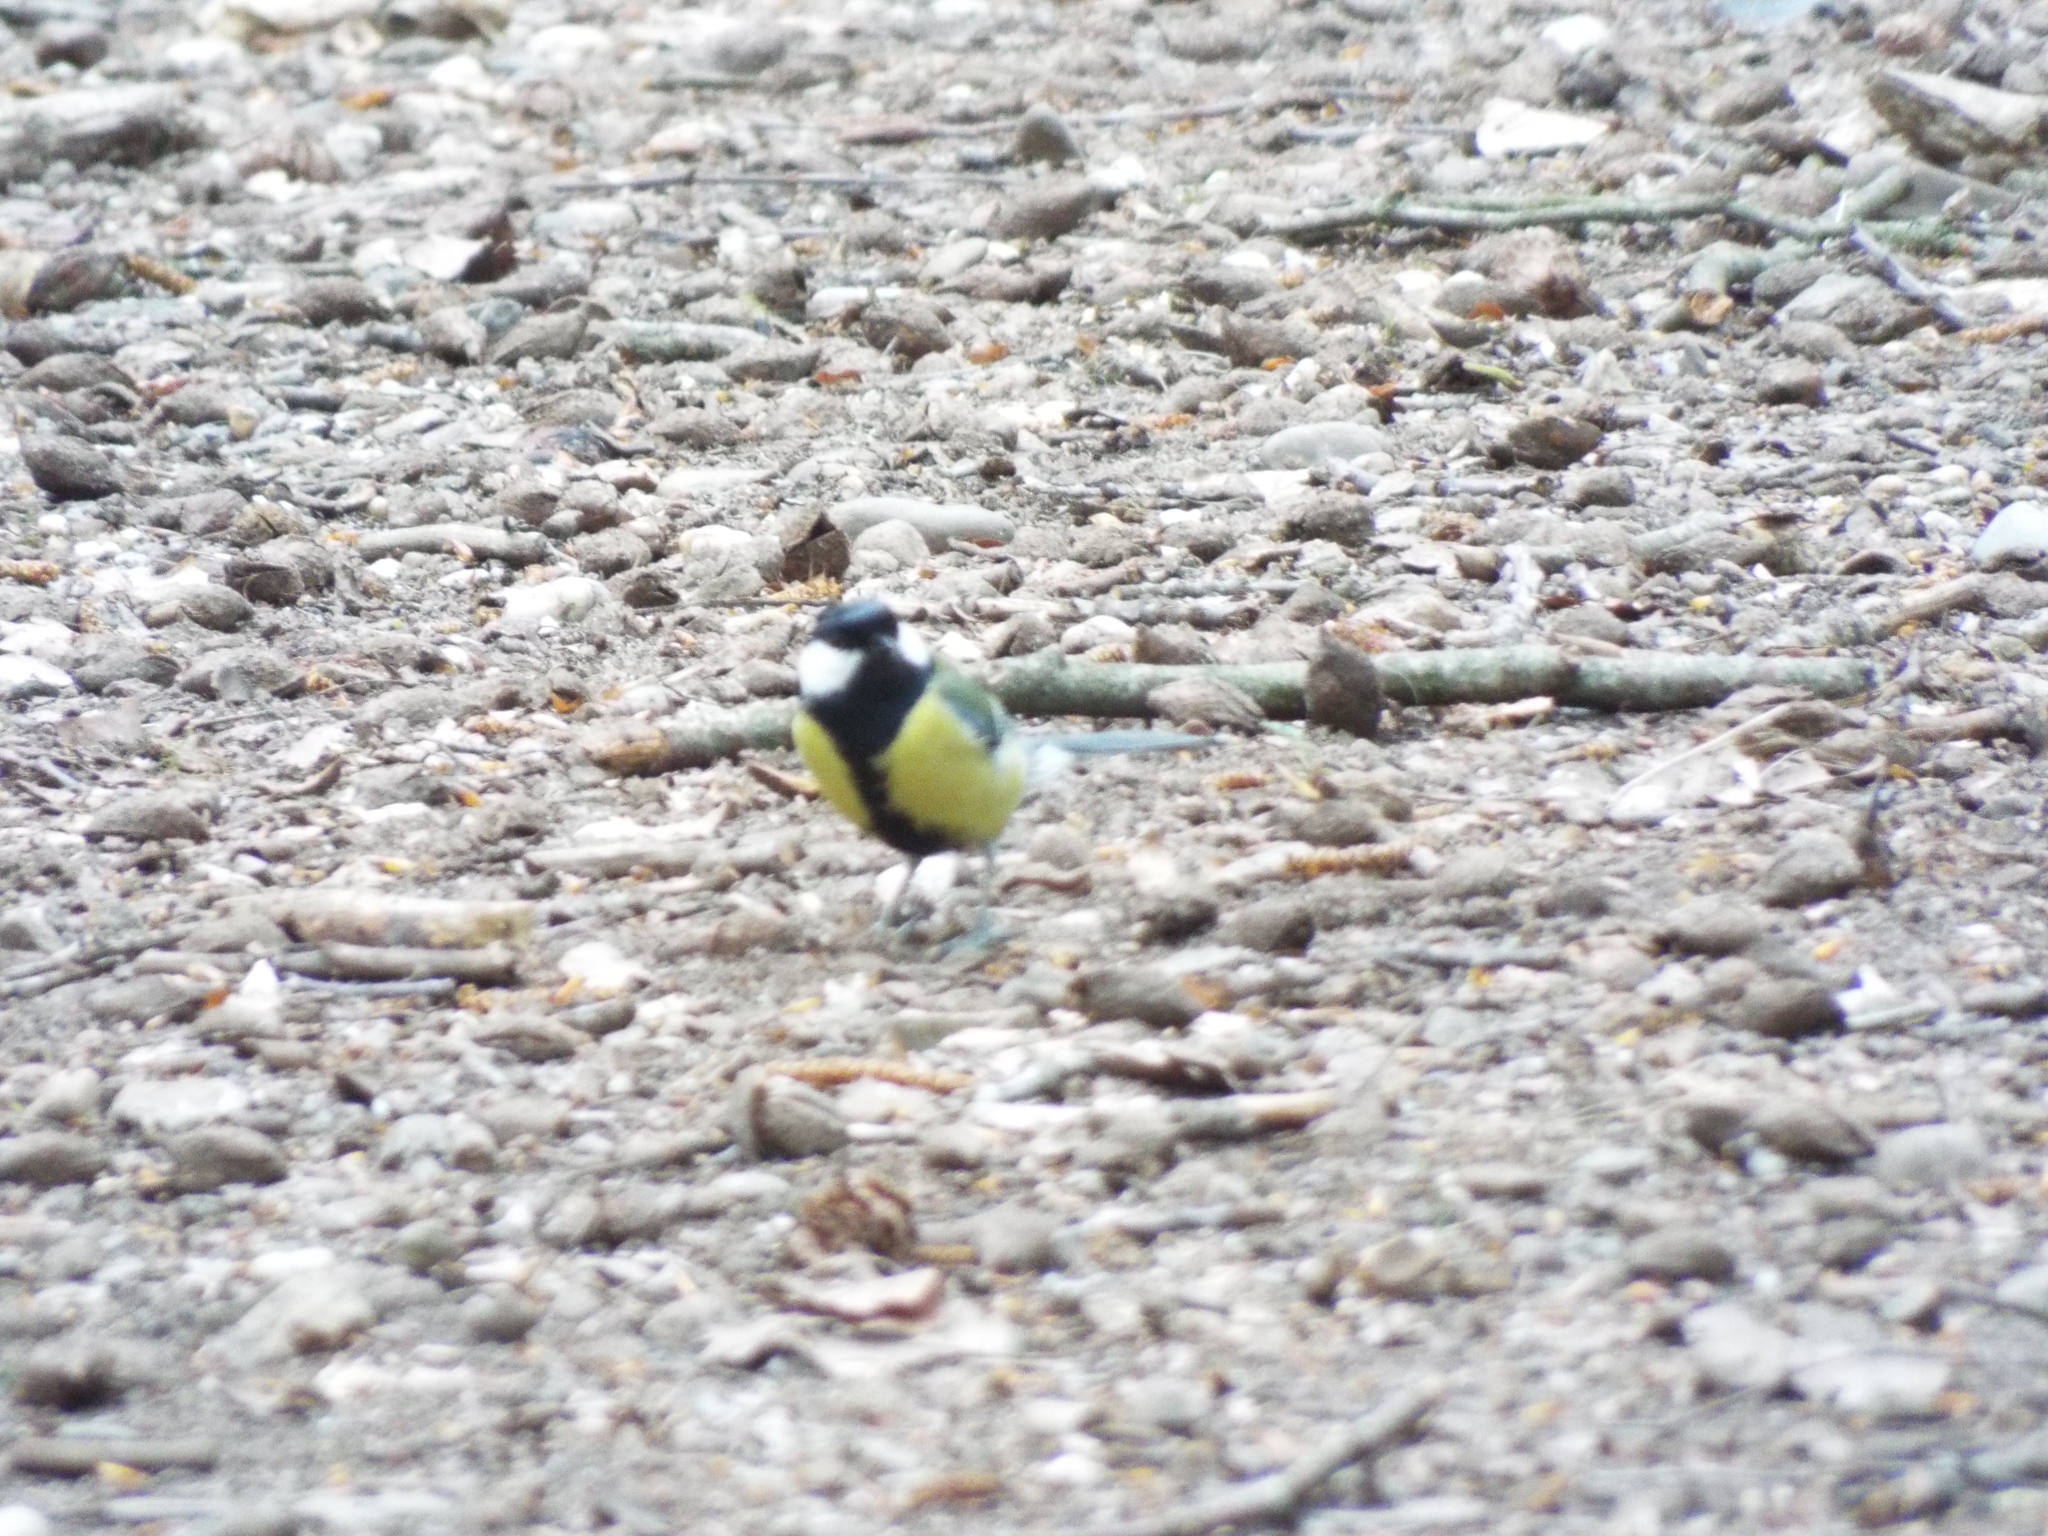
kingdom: Animalia
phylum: Chordata
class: Aves
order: Passeriformes
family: Paridae
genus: Parus
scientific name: Parus major
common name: Great tit
